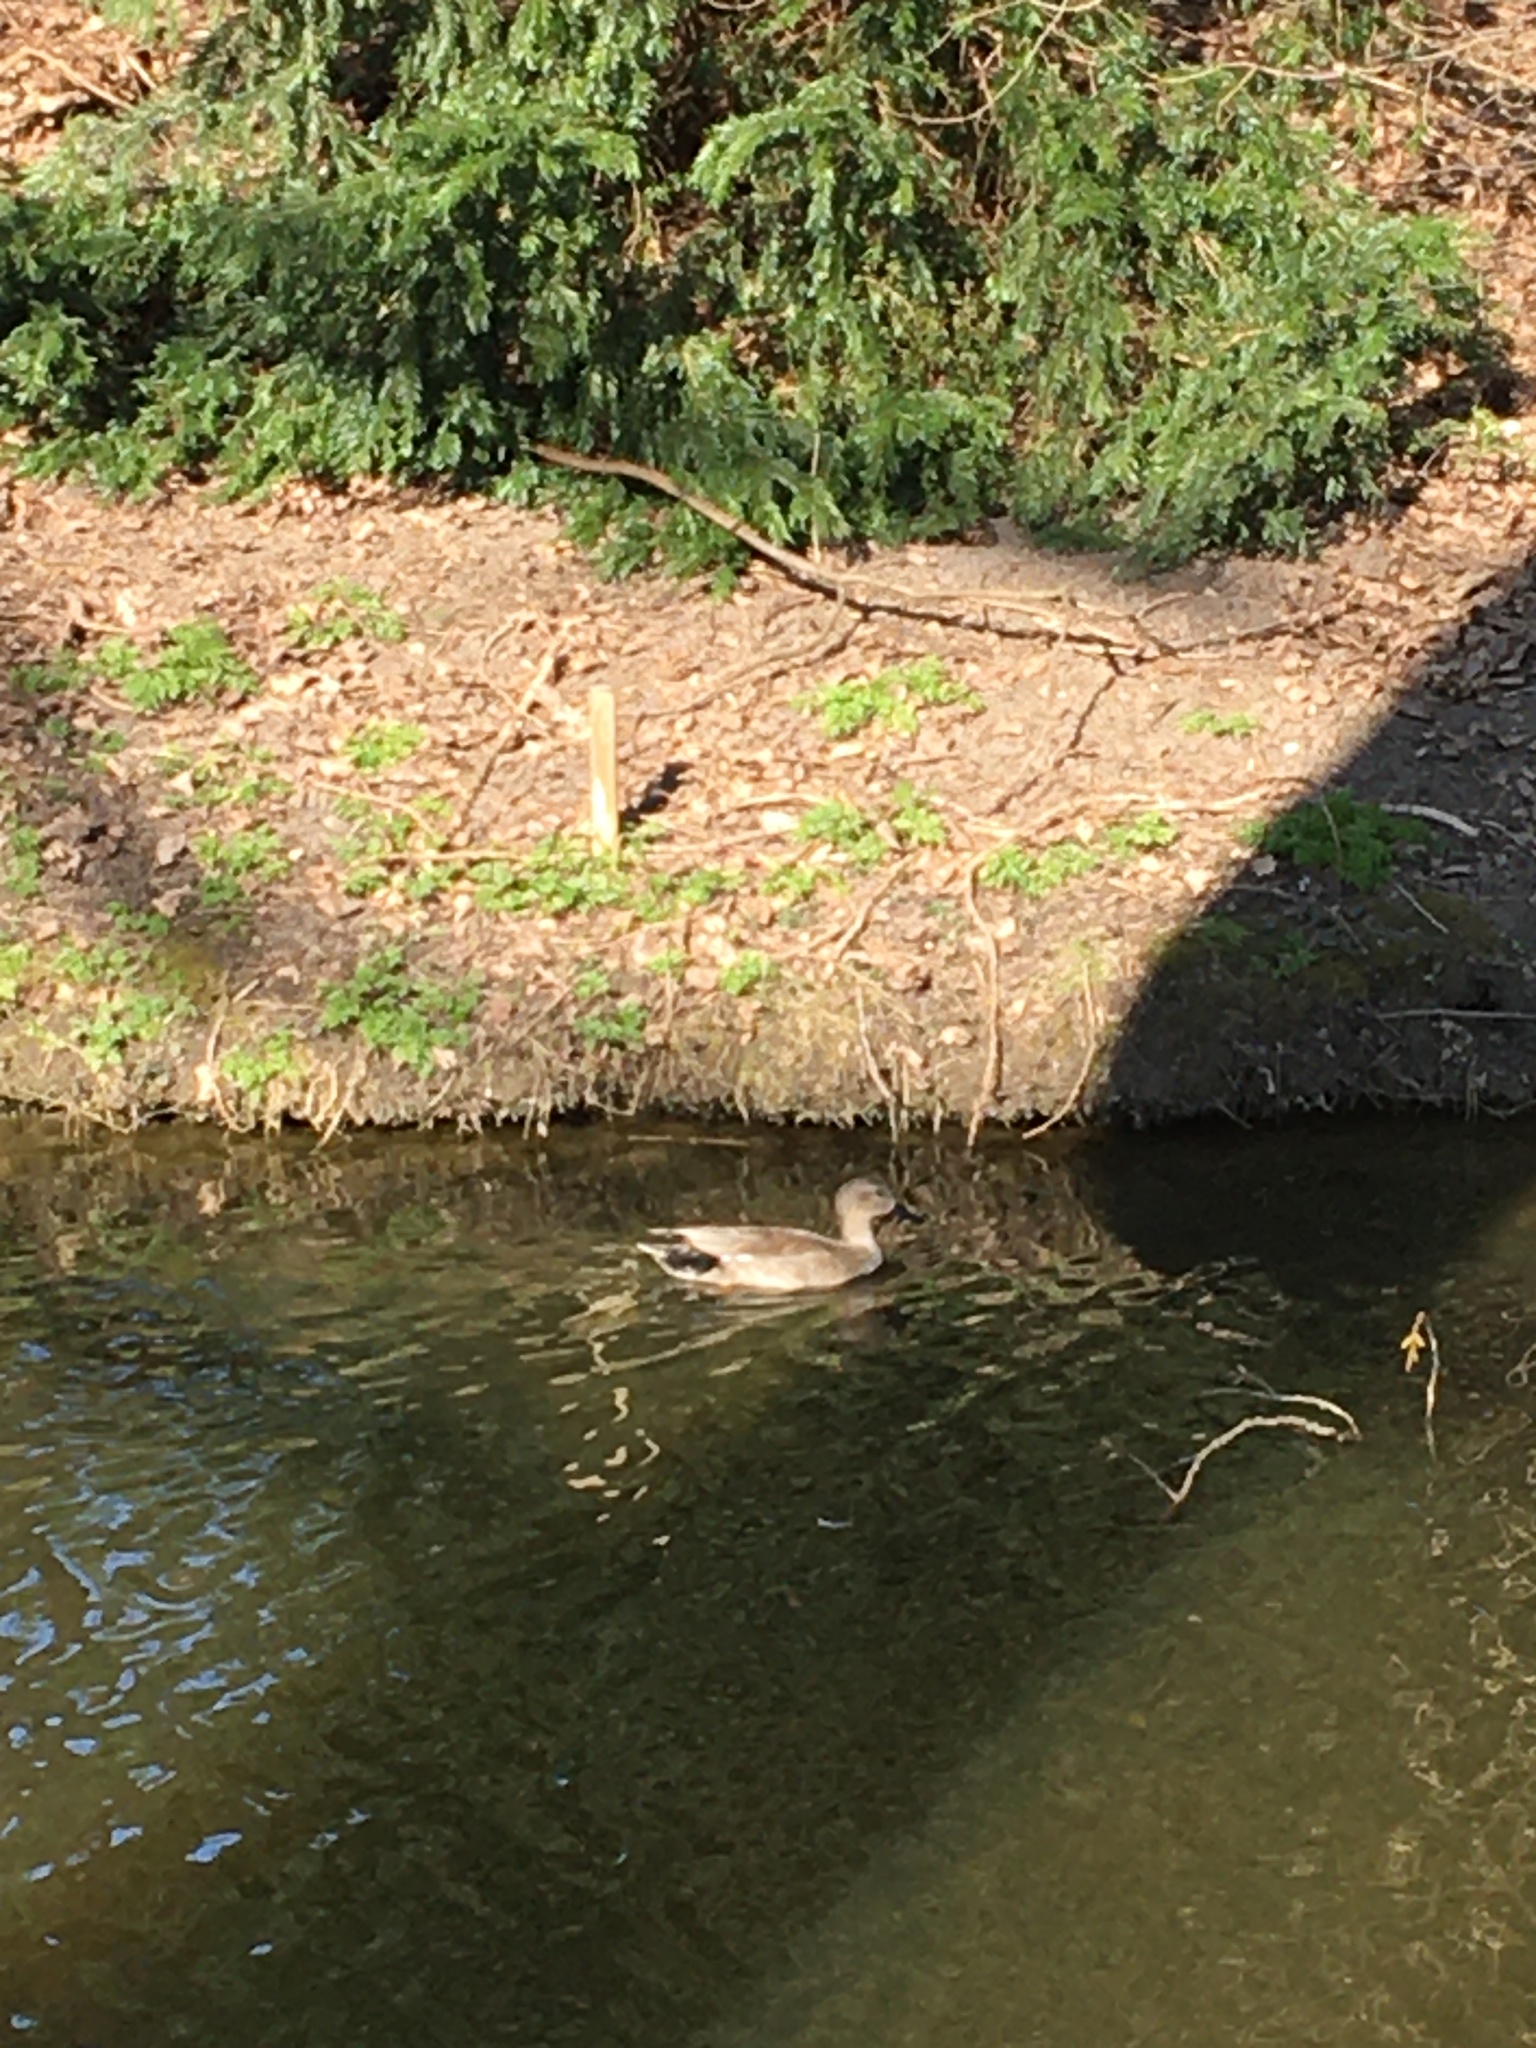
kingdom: Animalia
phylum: Chordata
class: Aves
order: Anseriformes
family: Anatidae
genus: Mareca
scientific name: Mareca strepera
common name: Gadwall
